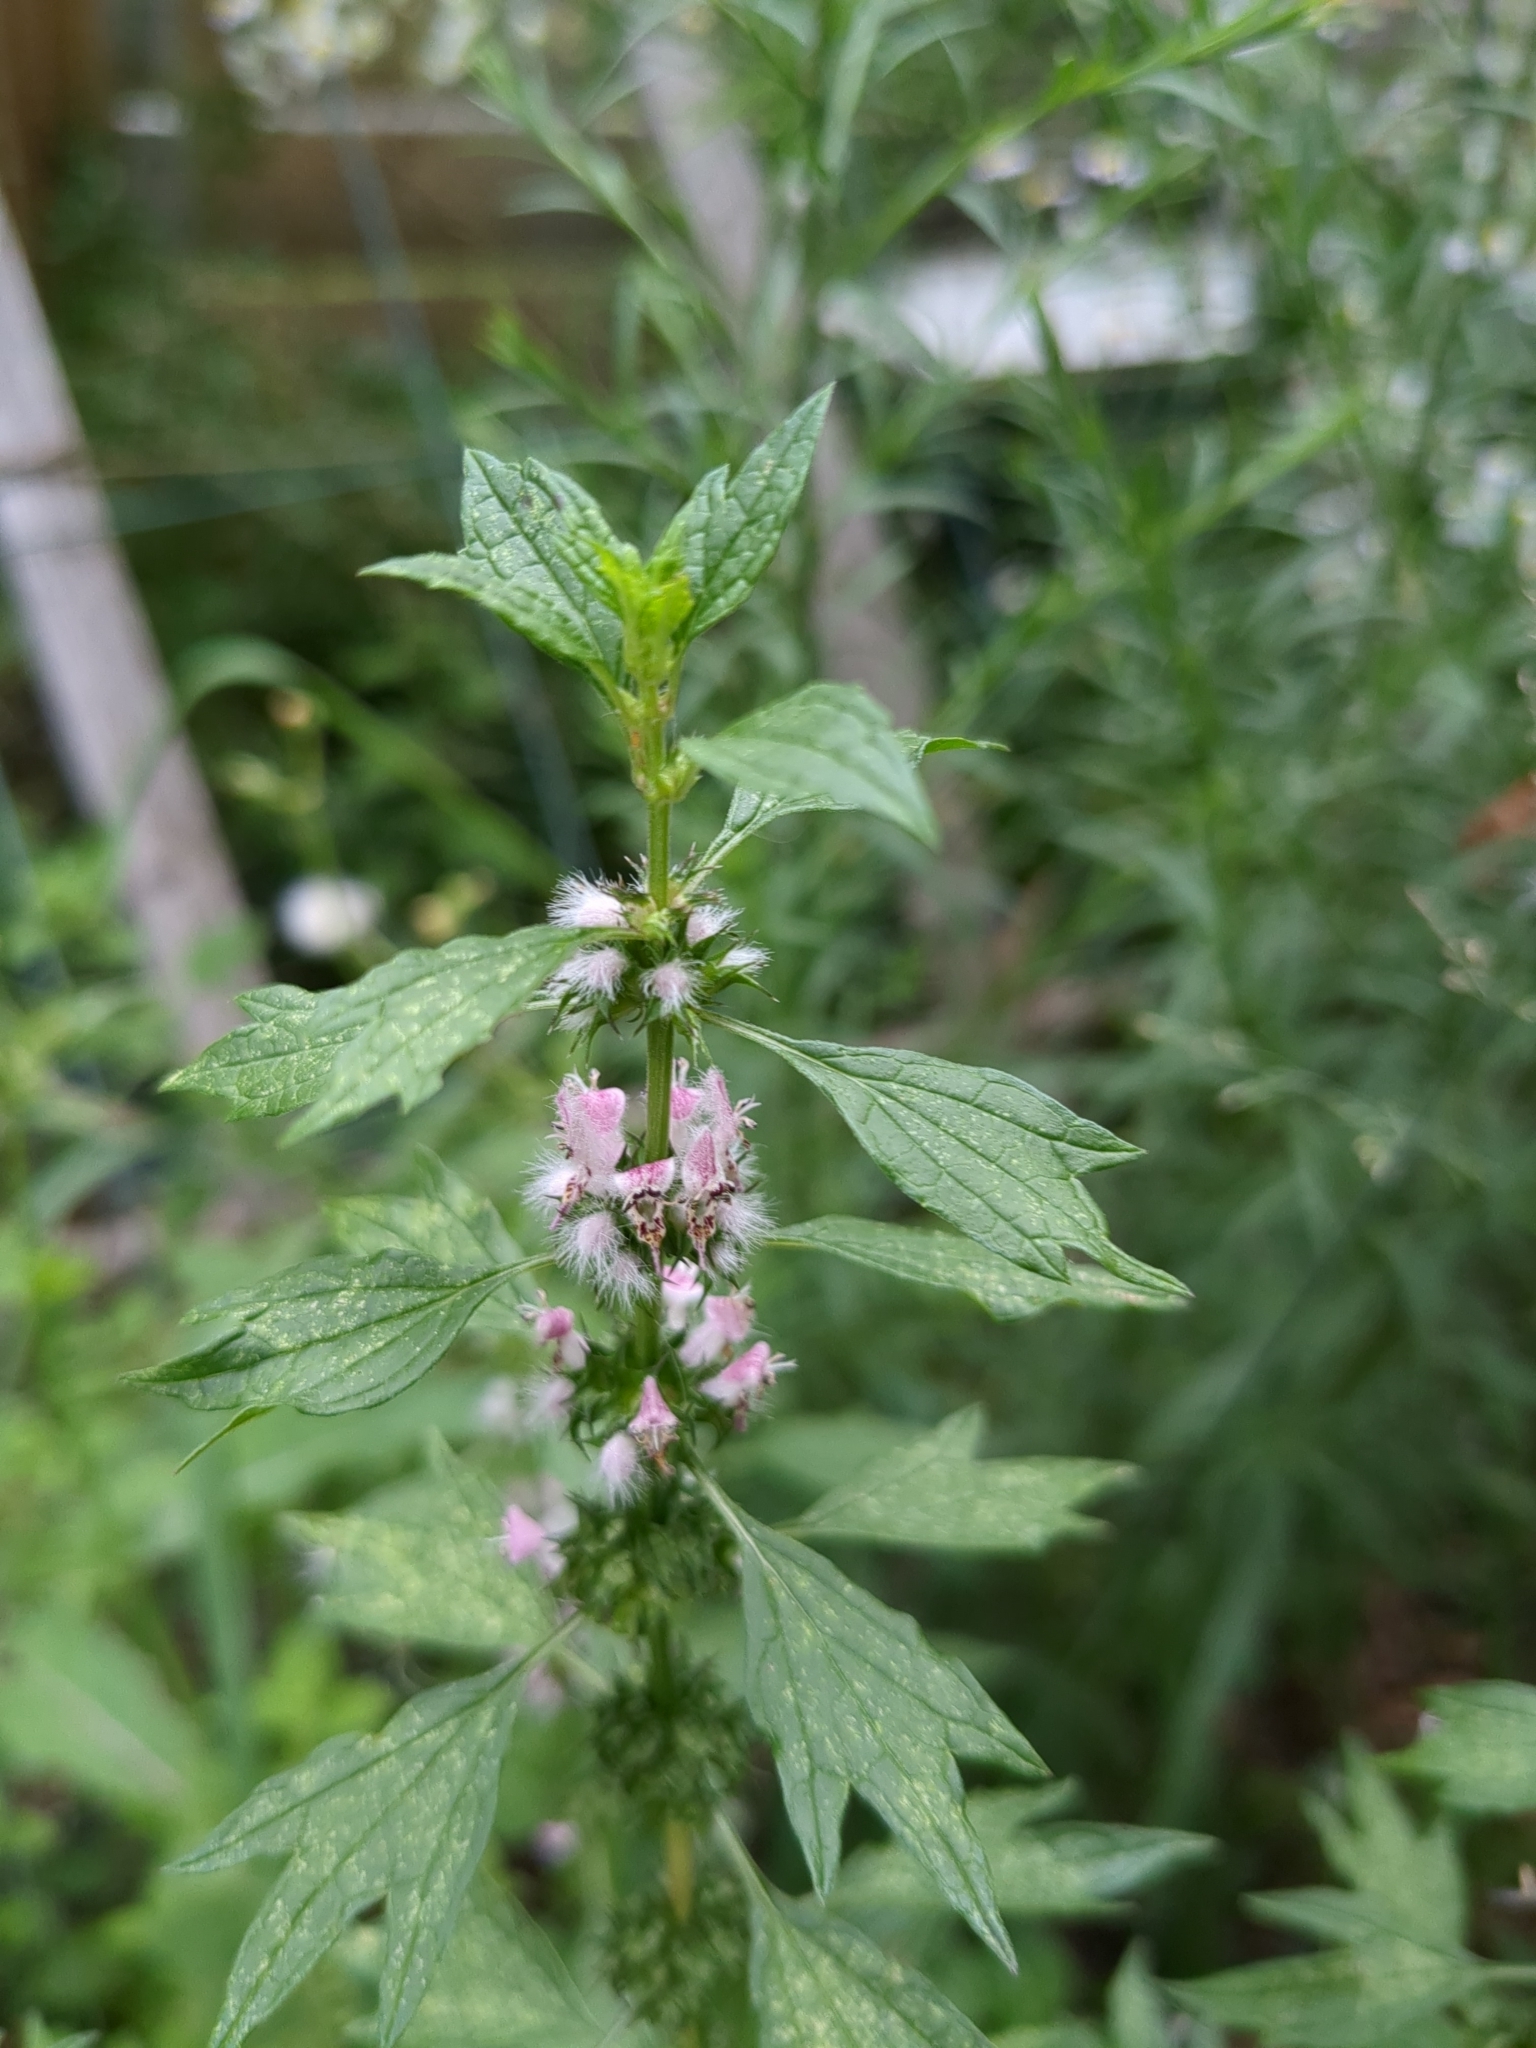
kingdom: Plantae
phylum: Tracheophyta
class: Magnoliopsida
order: Lamiales
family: Lamiaceae
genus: Leonurus
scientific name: Leonurus cardiaca
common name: Motherwort
